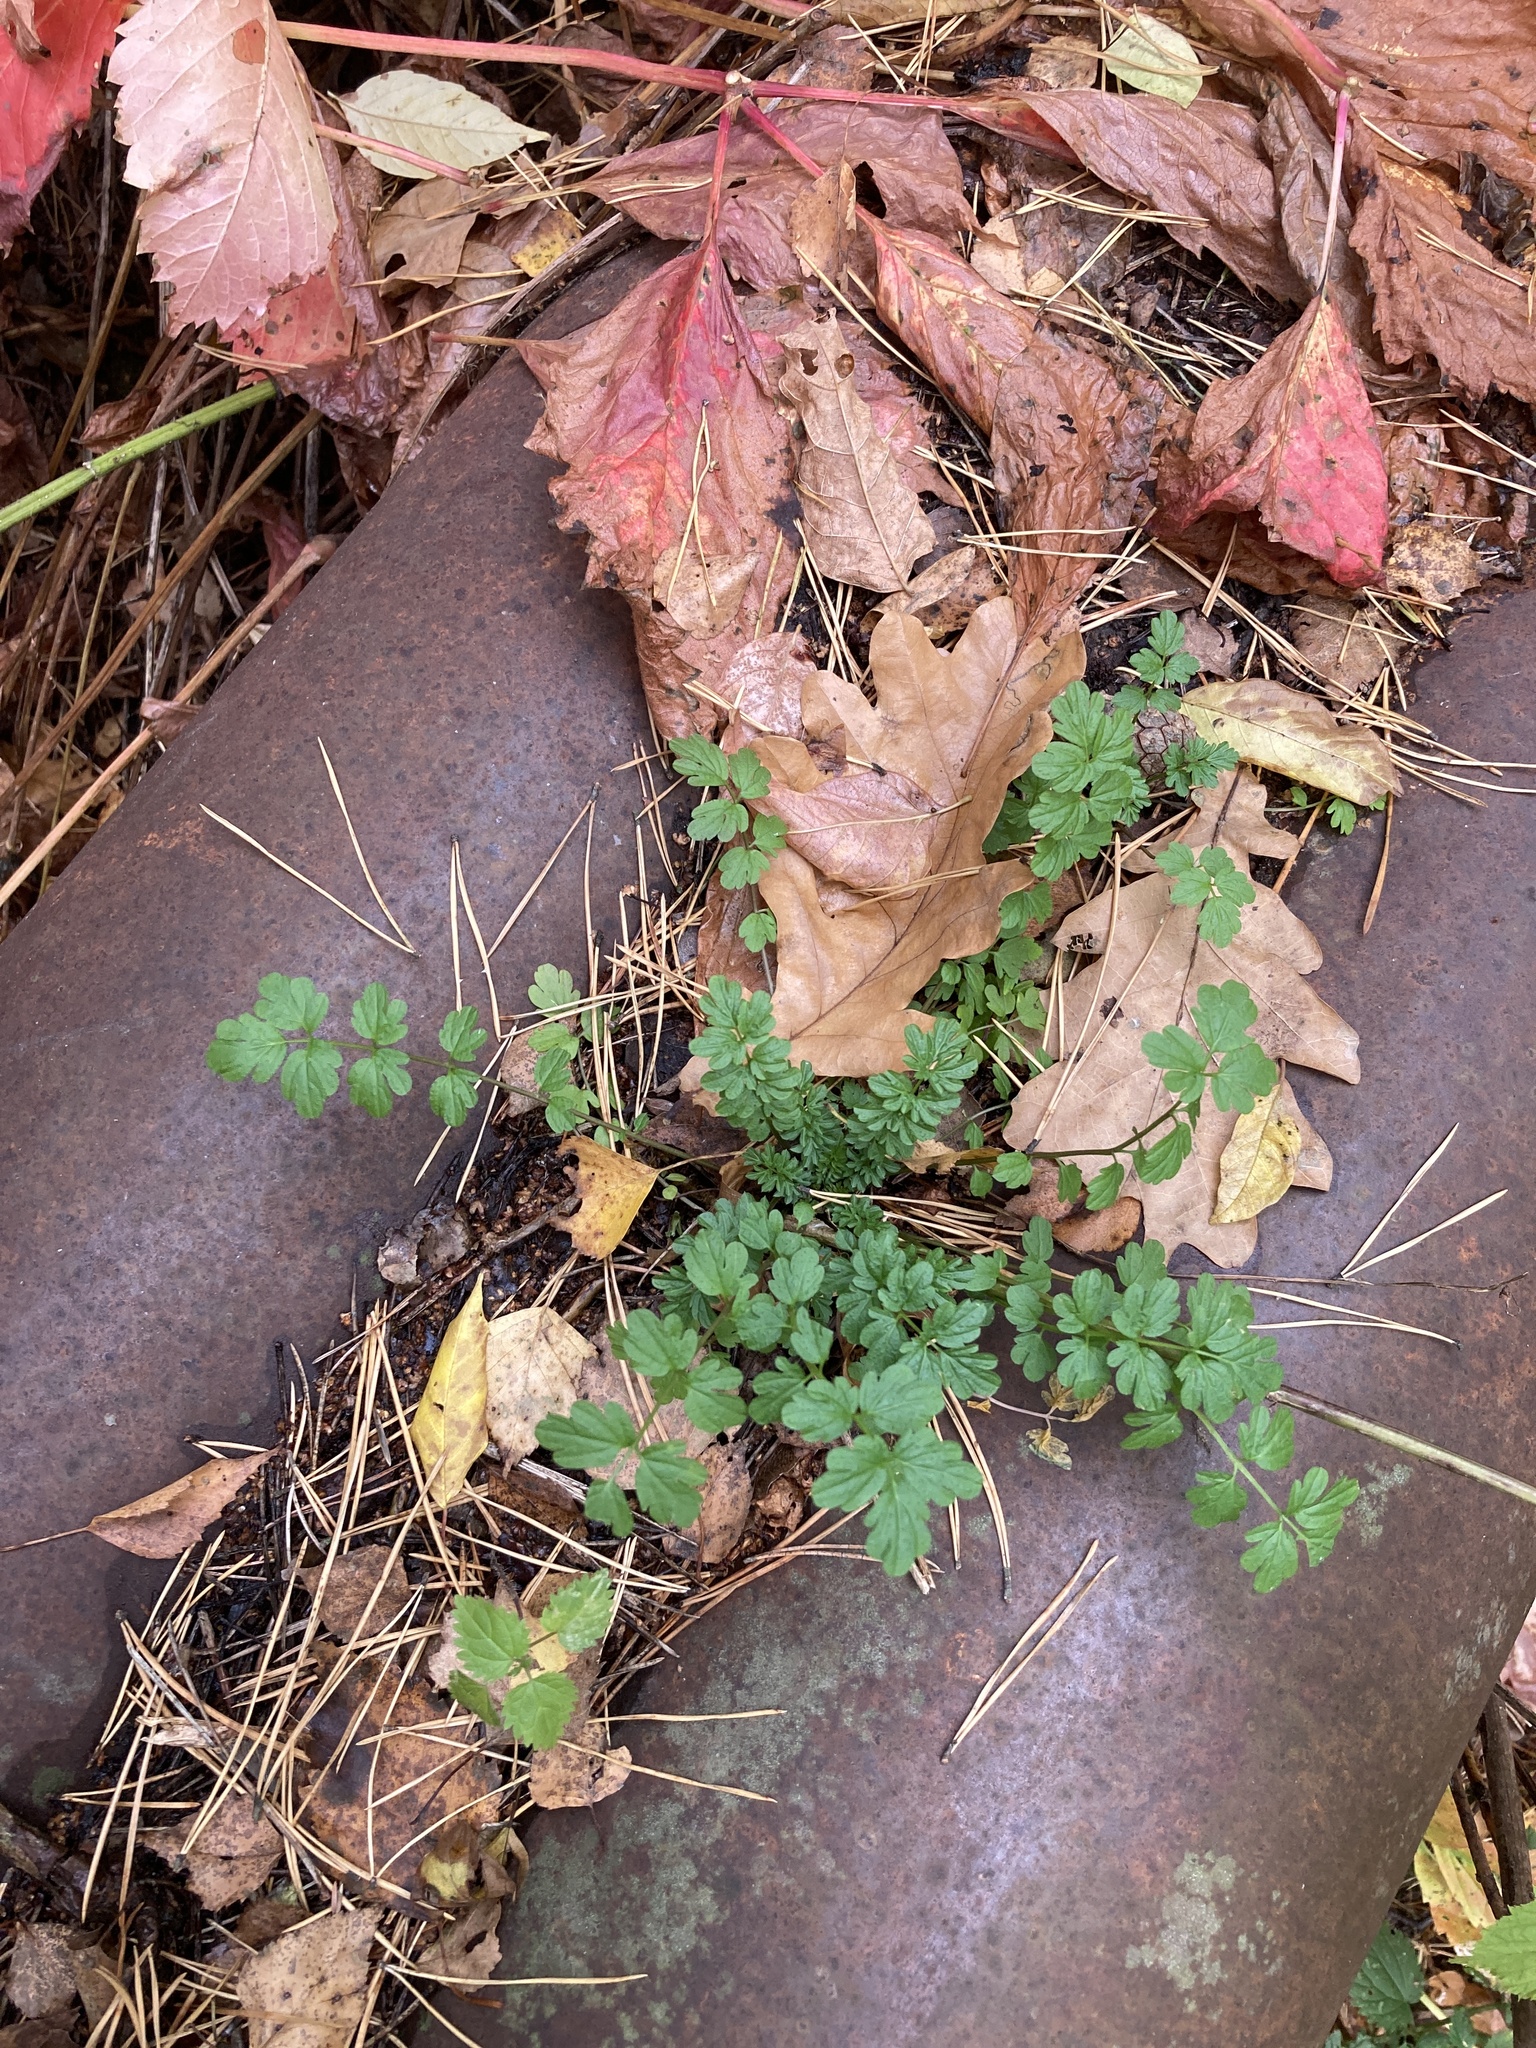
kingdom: Plantae
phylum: Tracheophyta
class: Magnoliopsida
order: Brassicales
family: Brassicaceae
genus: Cardamine
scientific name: Cardamine impatiens
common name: Narrow-leaved bitter-cress
